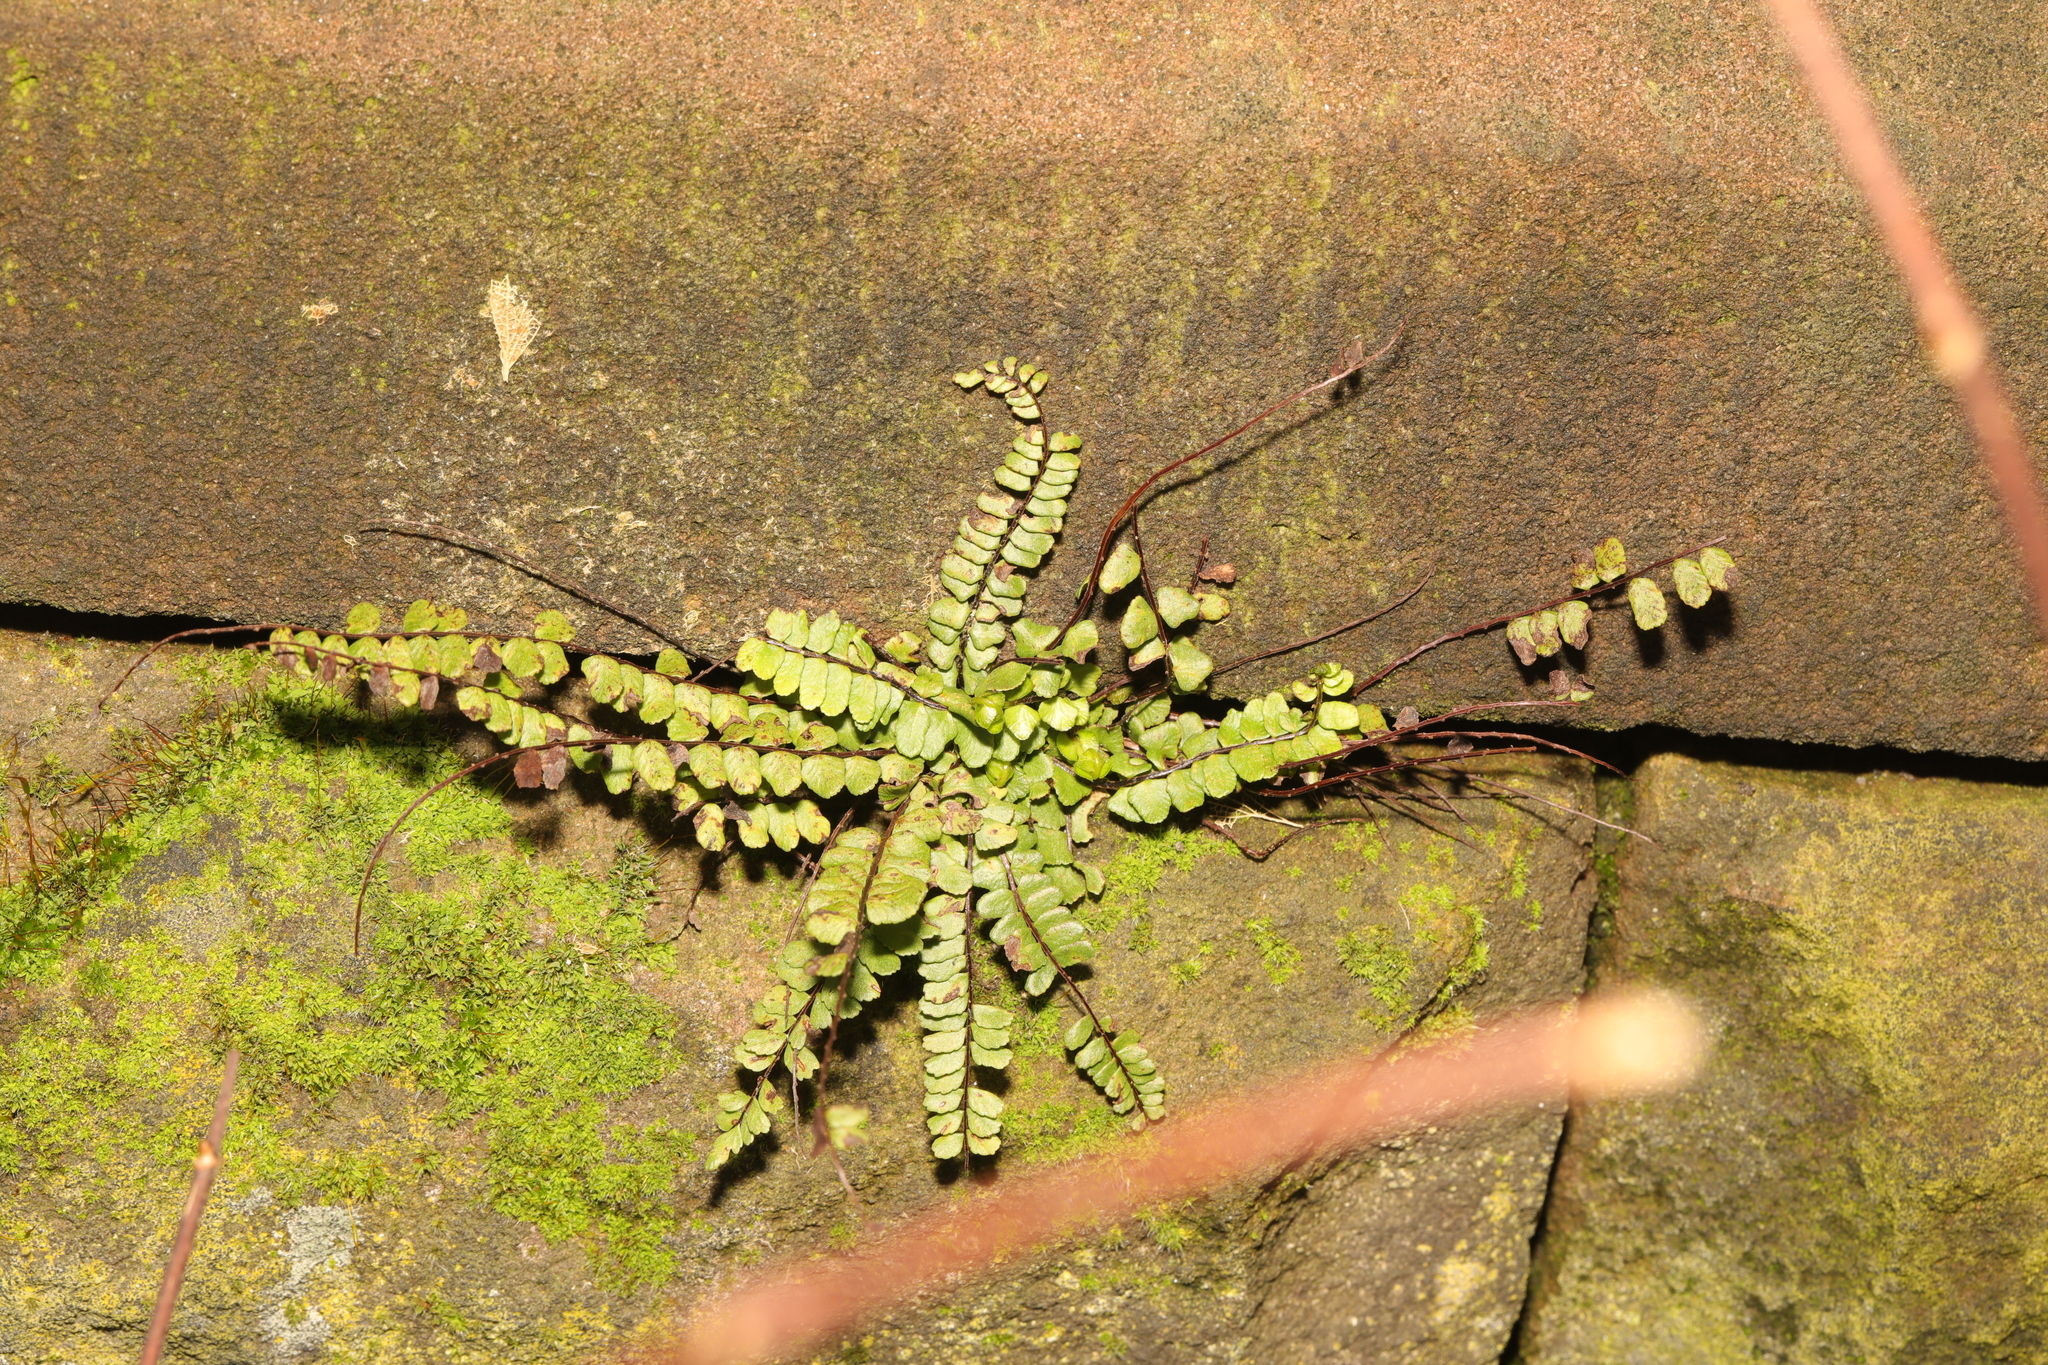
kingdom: Plantae
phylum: Tracheophyta
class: Polypodiopsida
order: Polypodiales
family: Aspleniaceae
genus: Asplenium
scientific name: Asplenium trichomanes
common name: Maidenhair spleenwort
